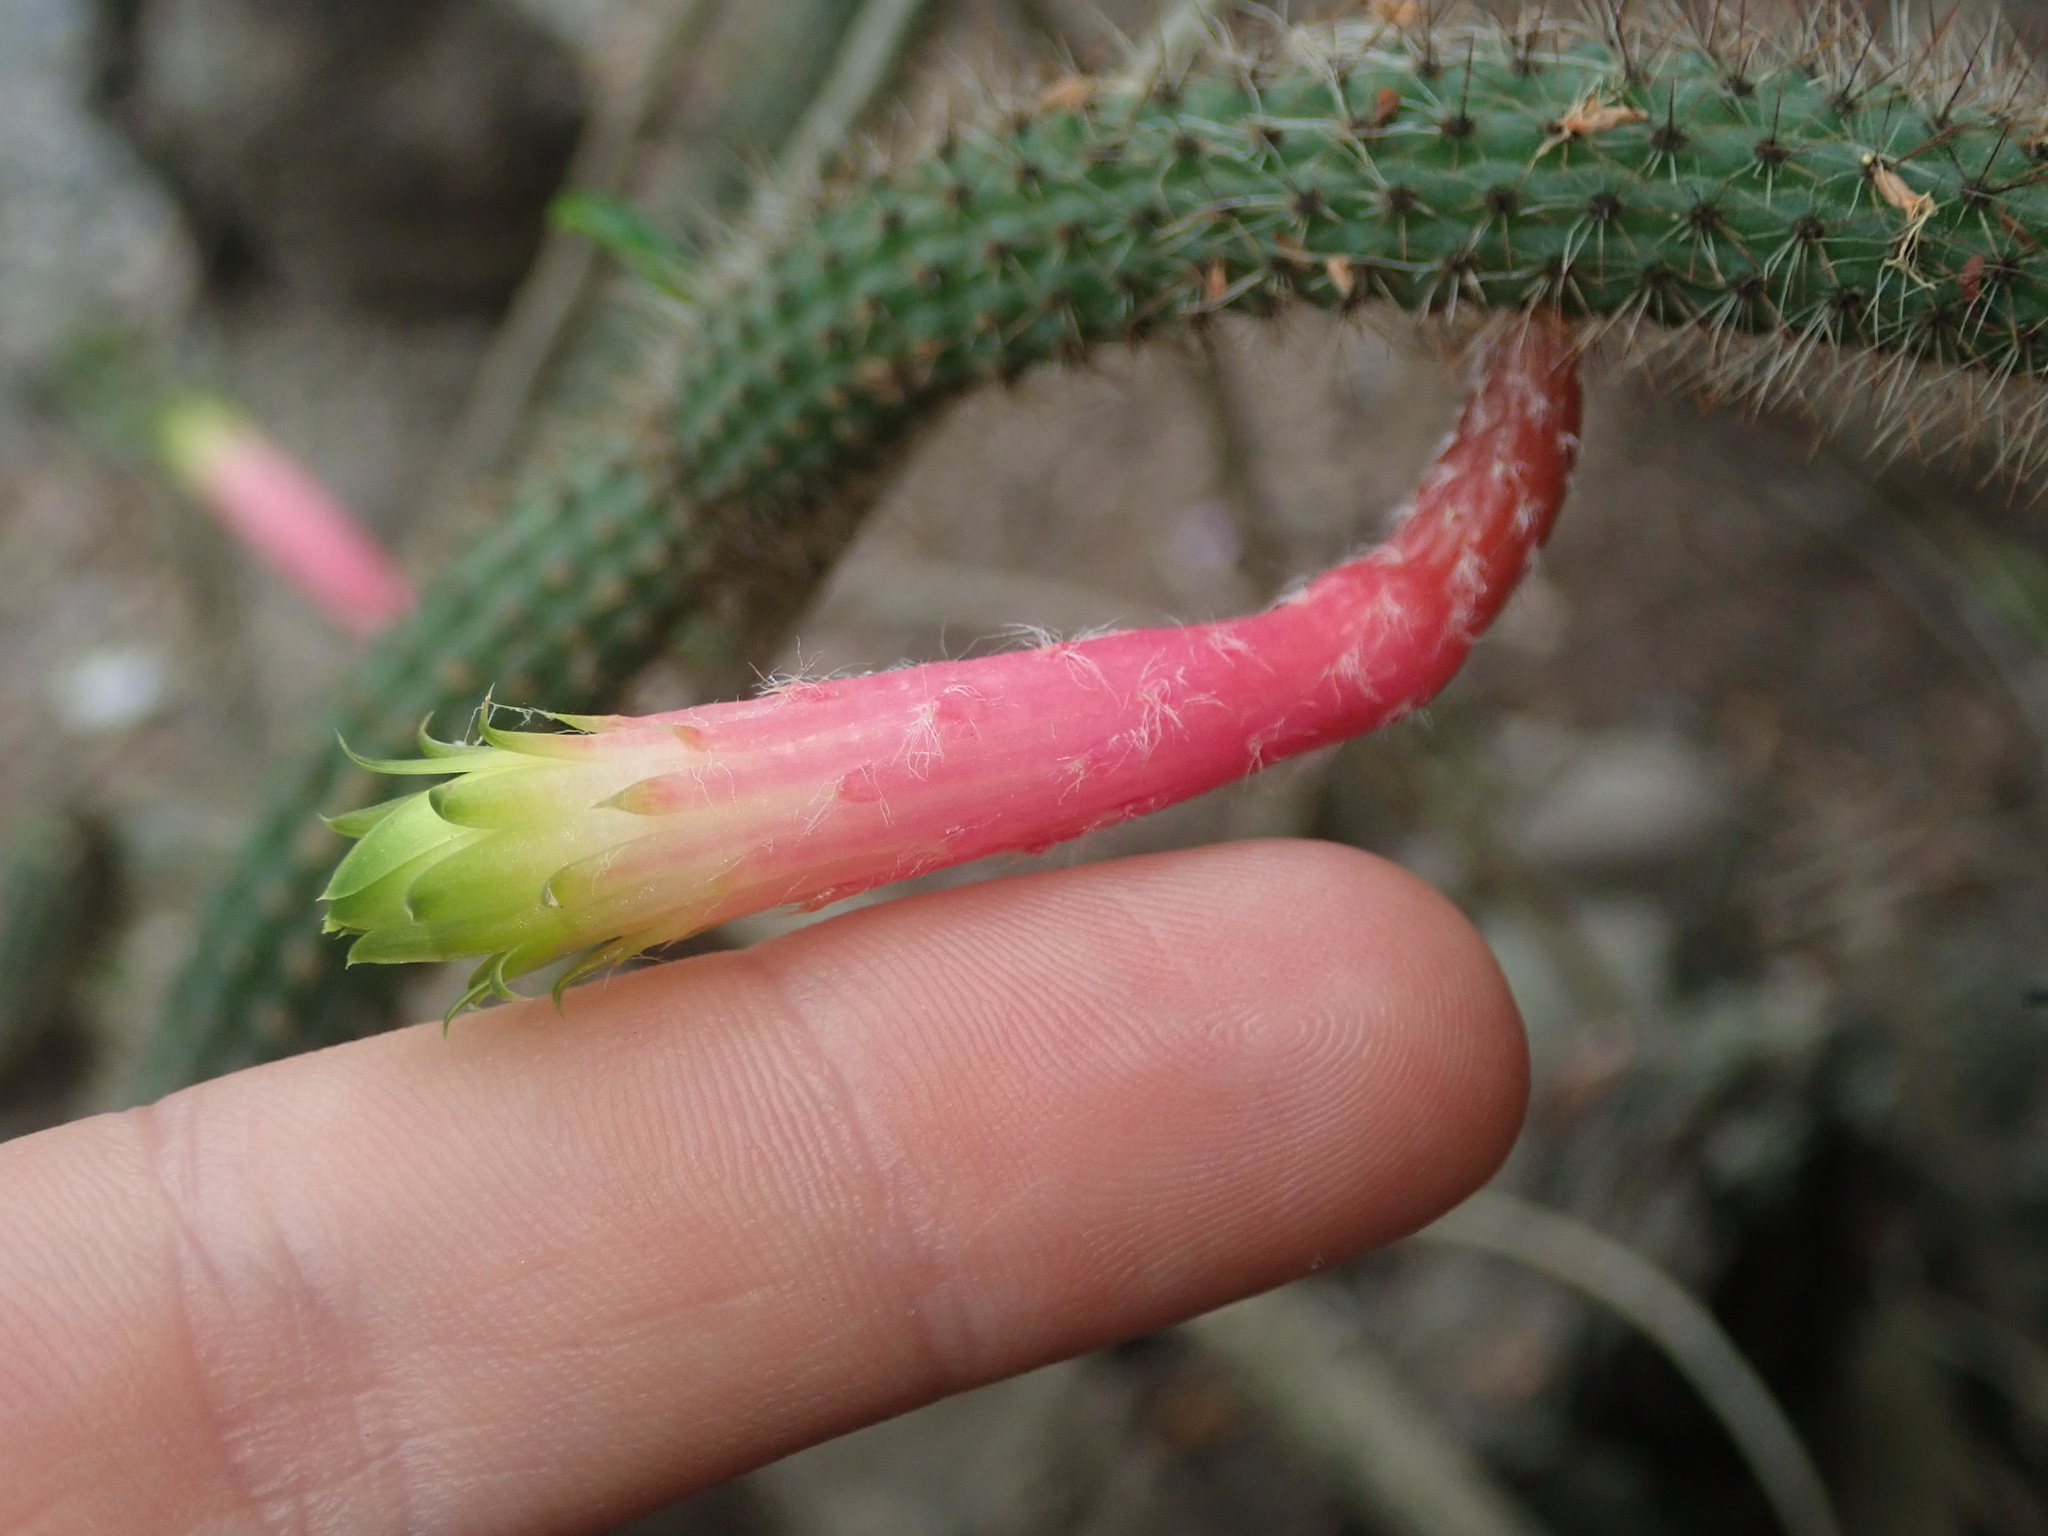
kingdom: Plantae
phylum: Tracheophyta
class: Magnoliopsida
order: Caryophyllales
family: Cactaceae
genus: Cleistocactus
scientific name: Cleistocactus smaragdiflorus
